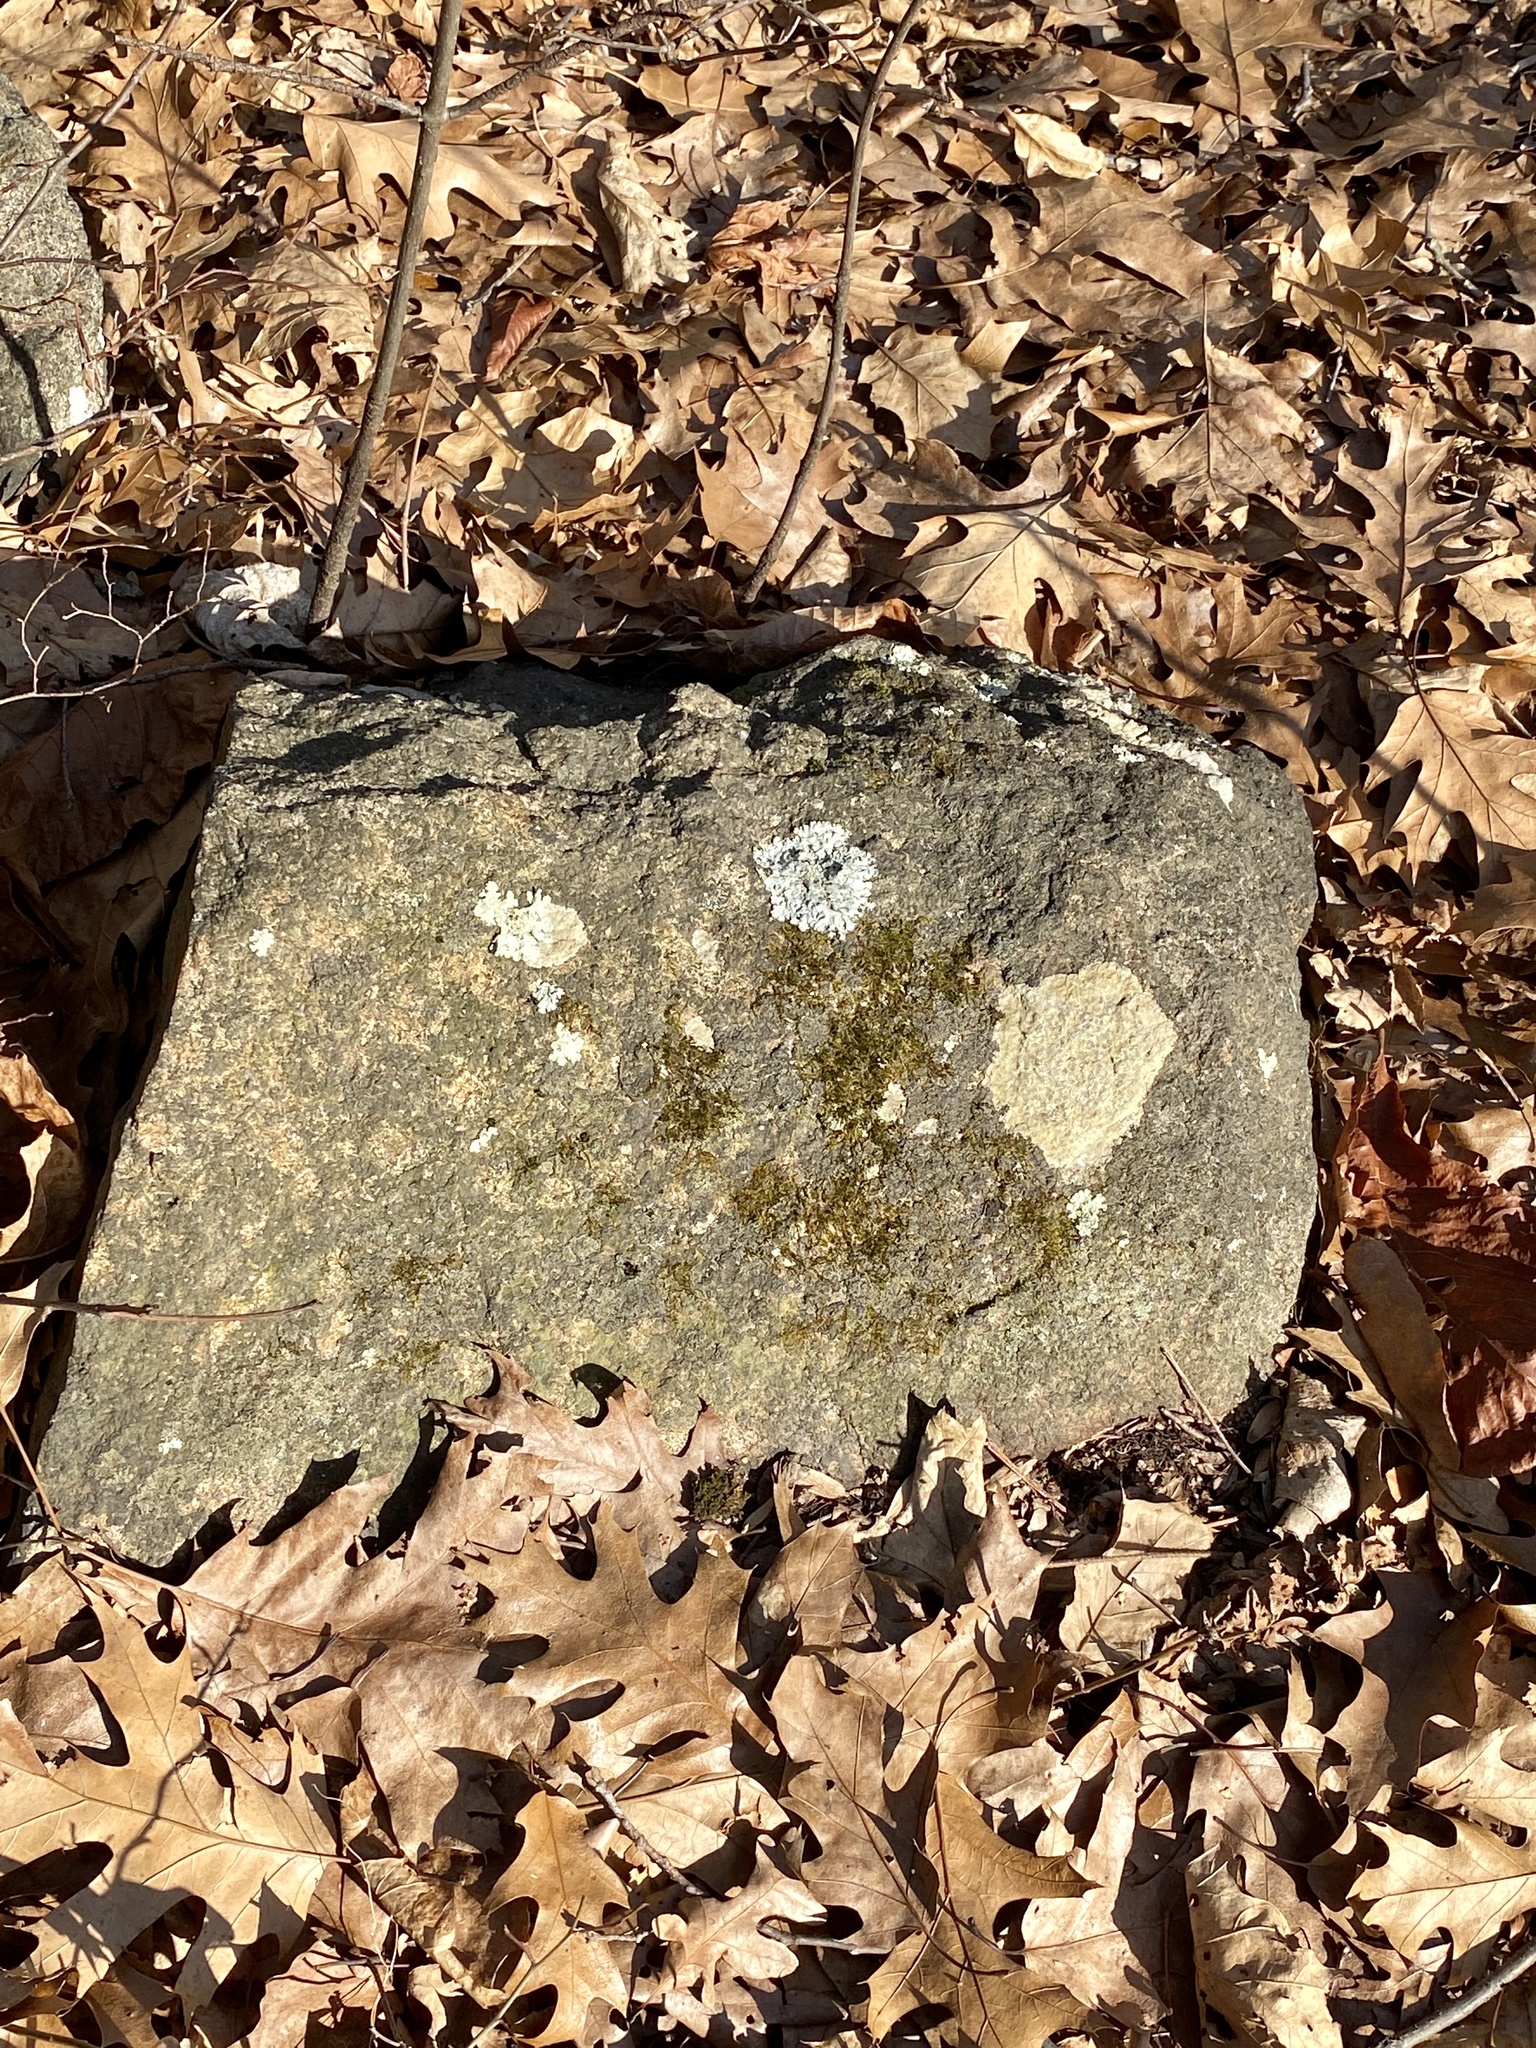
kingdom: Fungi
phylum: Ascomycota
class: Lecanoromycetes
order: Lecideales
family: Lecideaceae
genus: Porpidia
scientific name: Porpidia albocaerulescens
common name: Smokey-eyed boulder lichen
